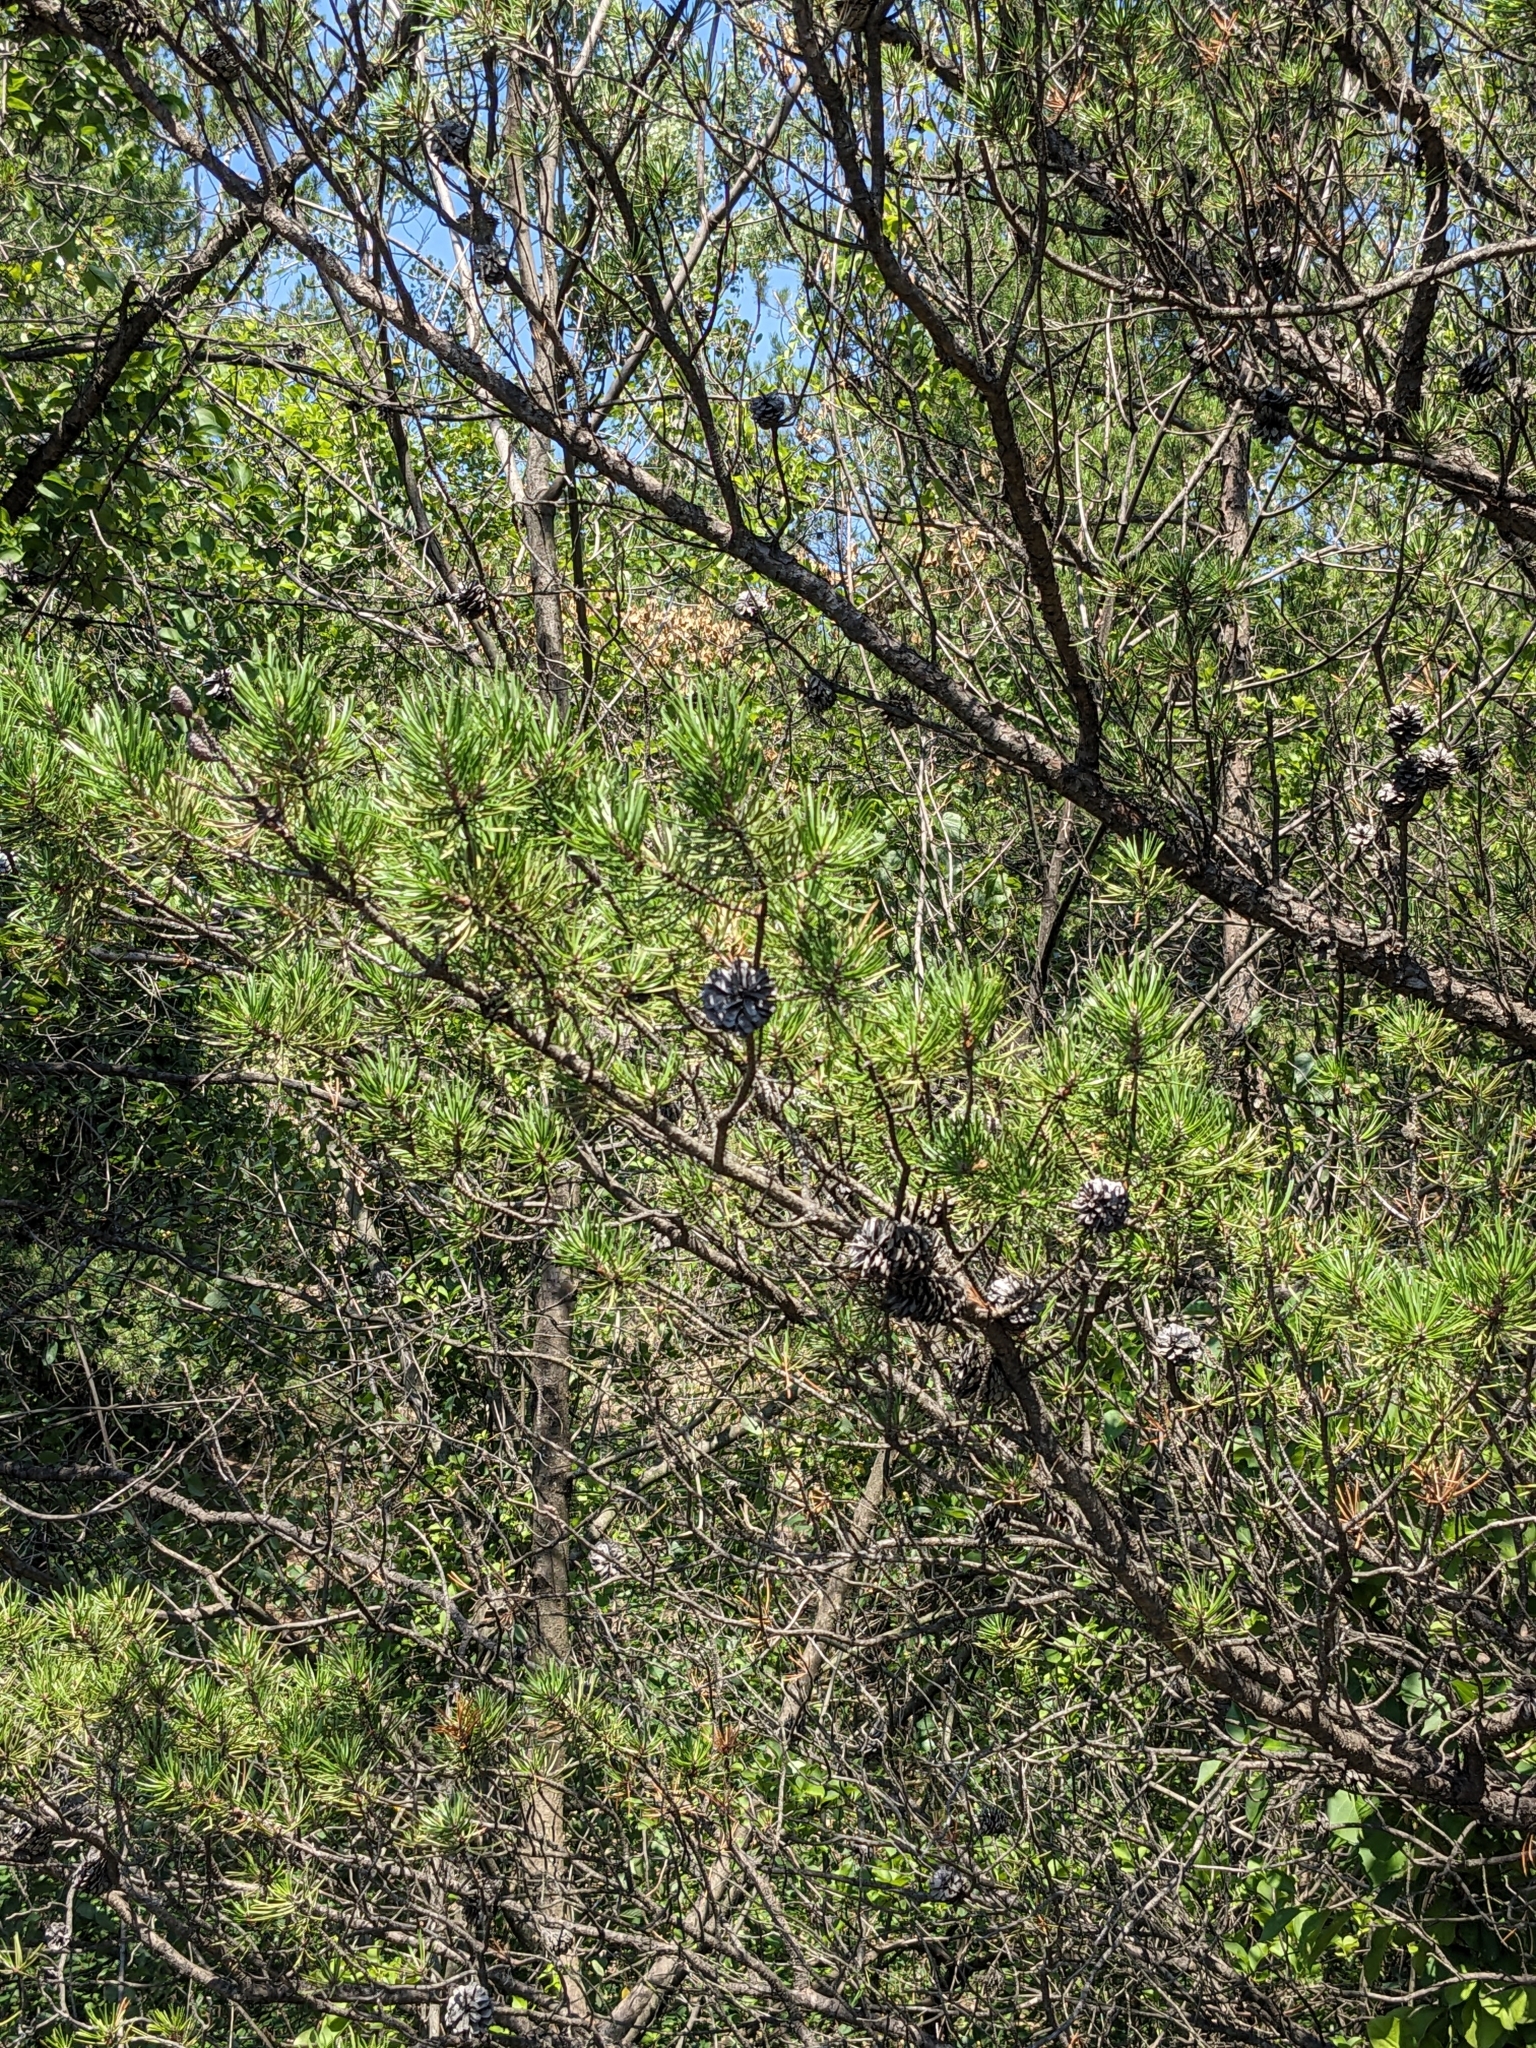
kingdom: Plantae
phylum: Tracheophyta
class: Pinopsida
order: Pinales
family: Pinaceae
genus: Pinus
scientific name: Pinus banksiana
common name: Jack pine
